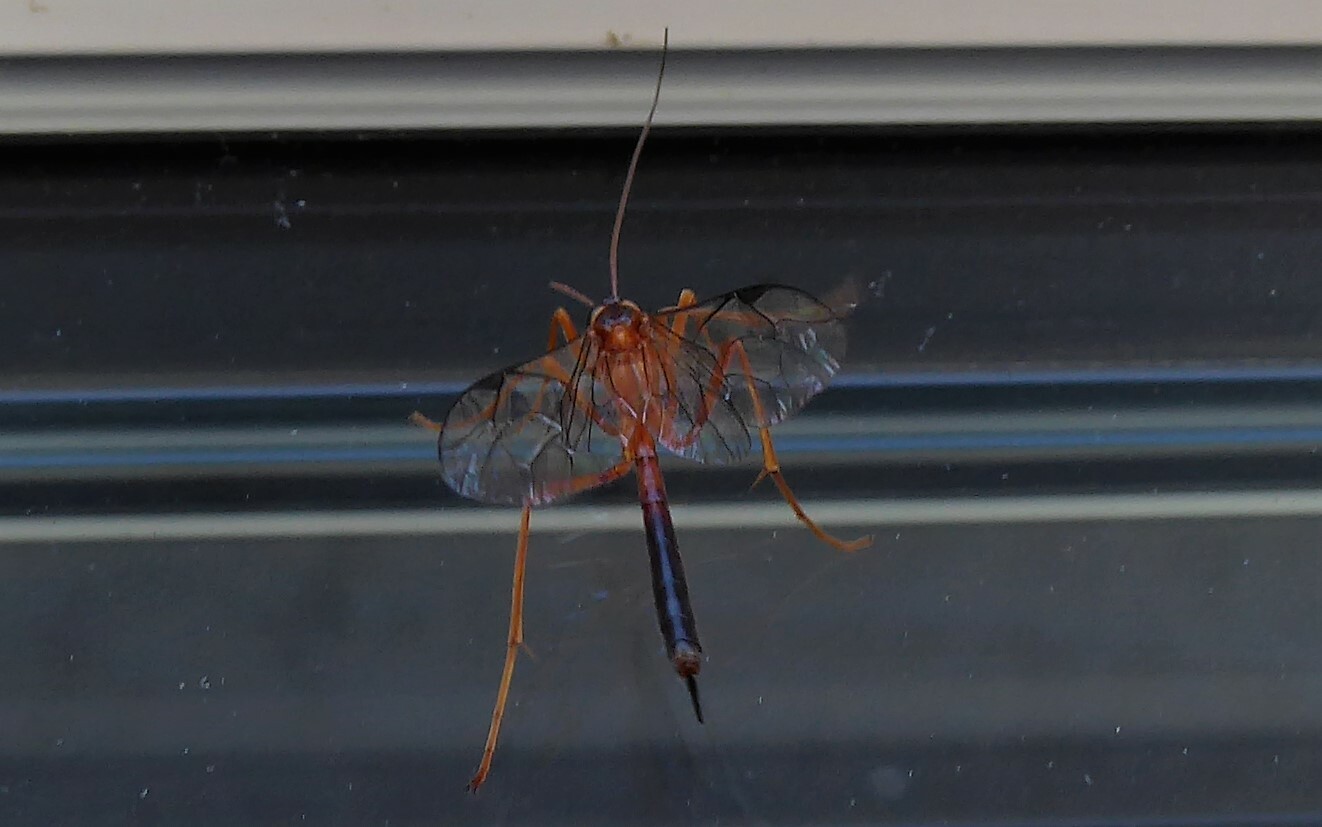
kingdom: Animalia
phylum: Arthropoda
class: Insecta
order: Hymenoptera
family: Ichneumonidae
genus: Netelia
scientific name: Netelia ephippiata
